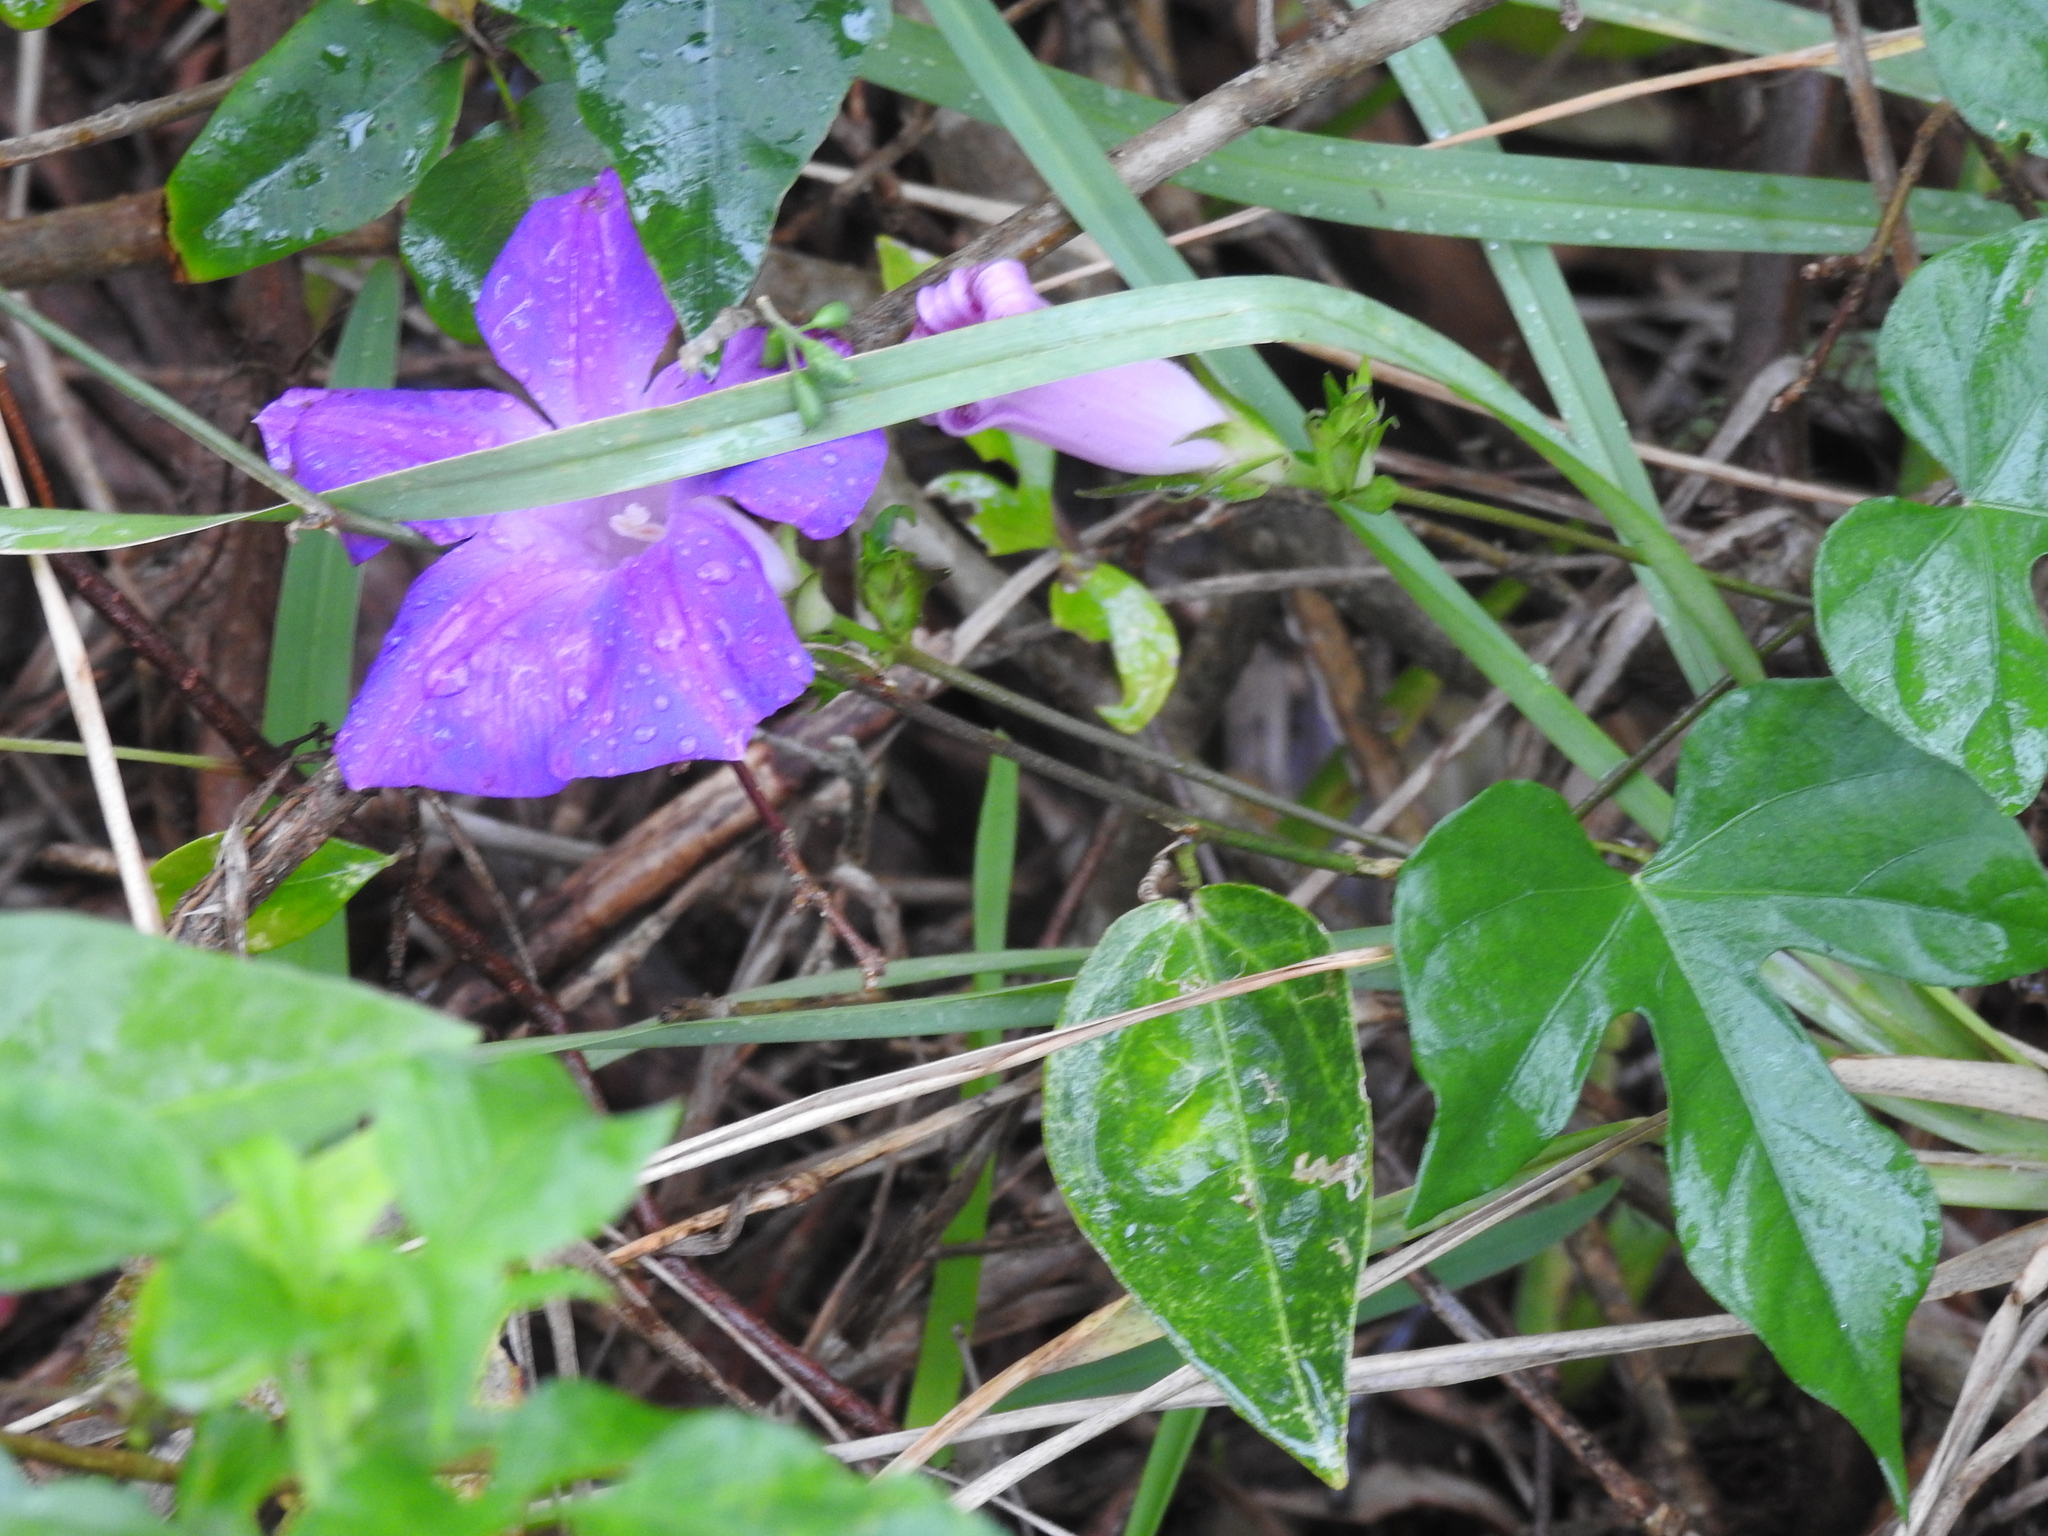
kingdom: Plantae
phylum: Tracheophyta
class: Magnoliopsida
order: Solanales
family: Convolvulaceae
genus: Ipomoea
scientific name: Ipomoea indica
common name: Blue dawnflower
